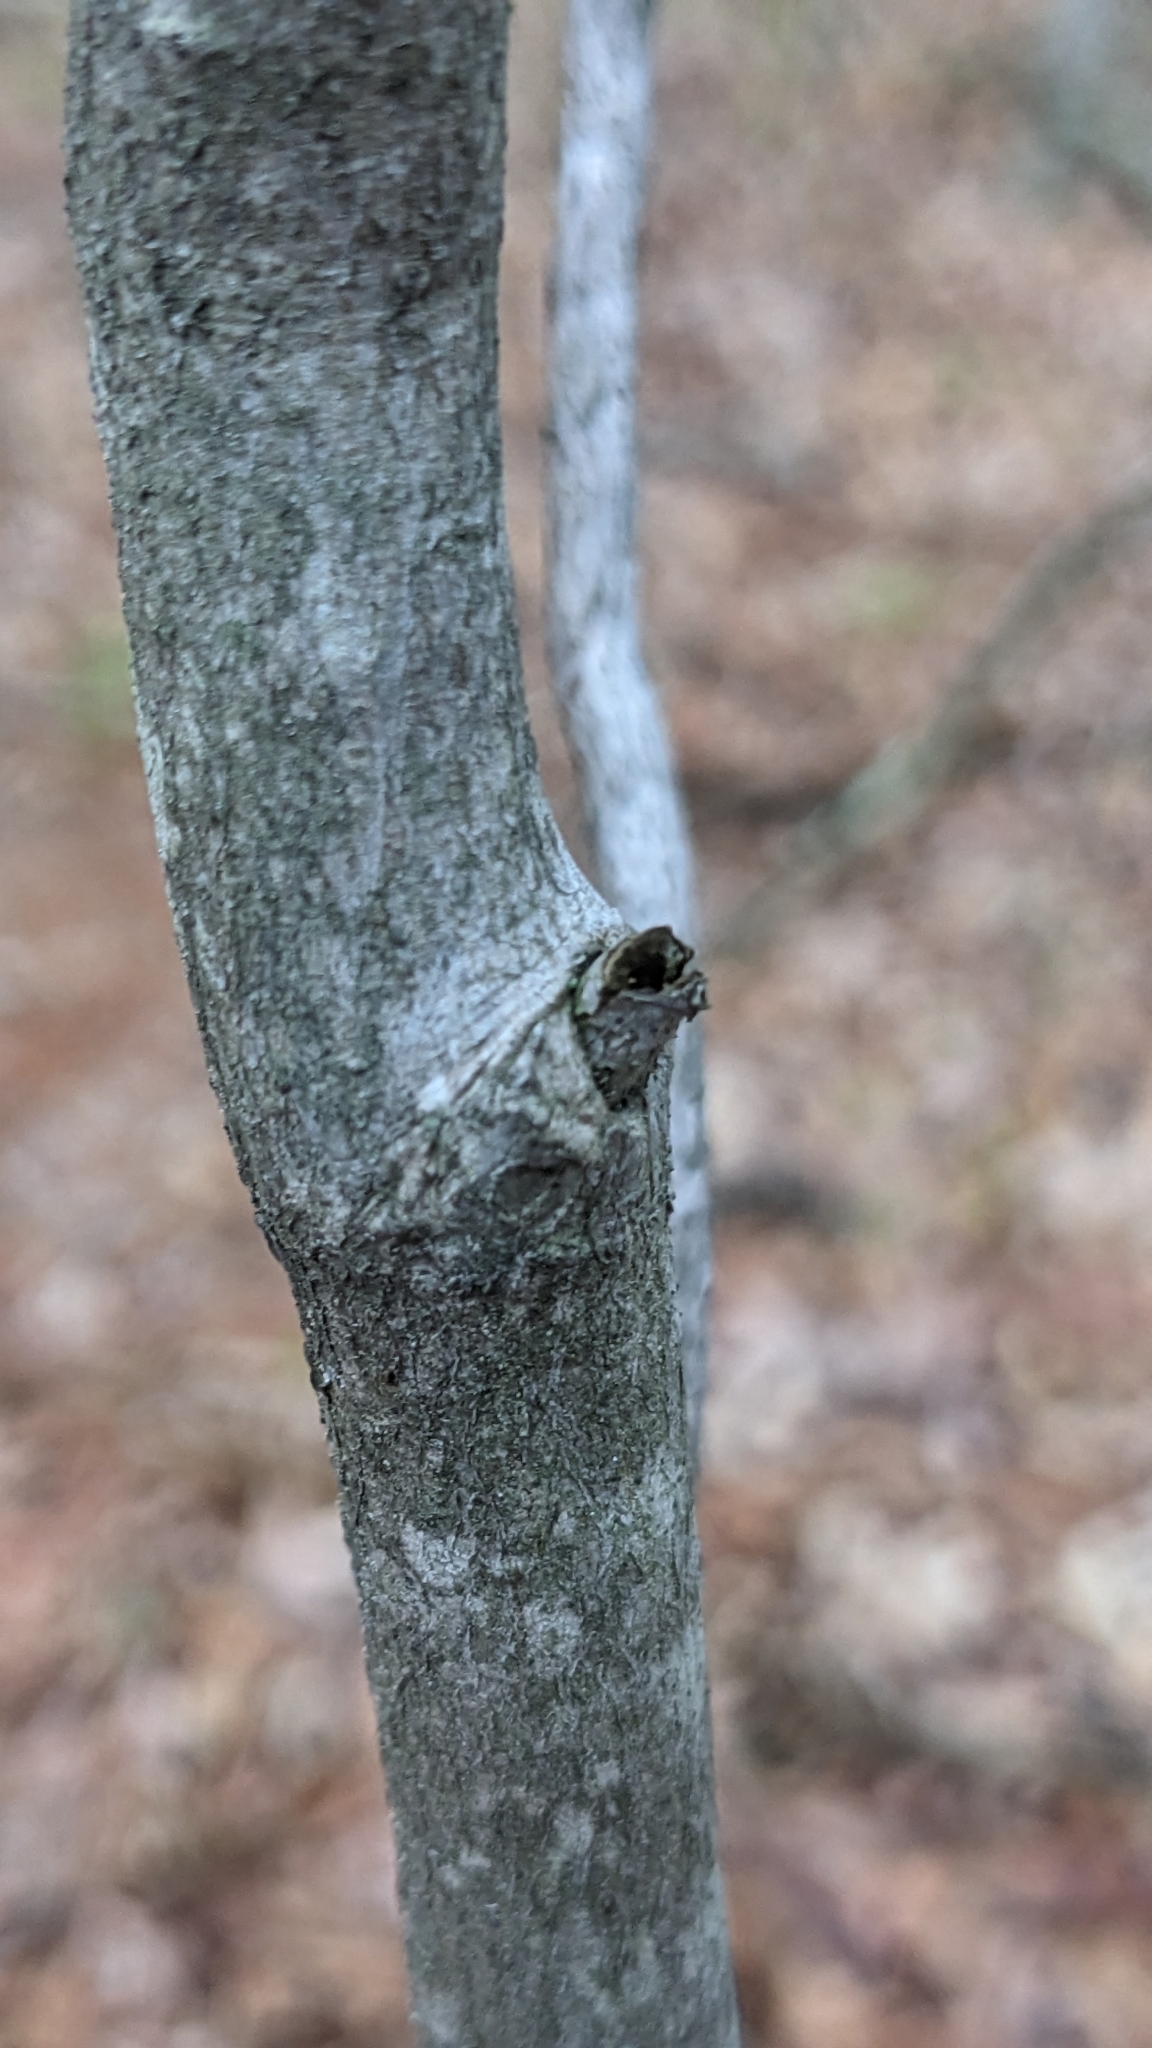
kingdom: Plantae
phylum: Tracheophyta
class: Magnoliopsida
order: Sapindales
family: Sapindaceae
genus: Acer
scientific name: Acer rubrum
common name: Red maple
